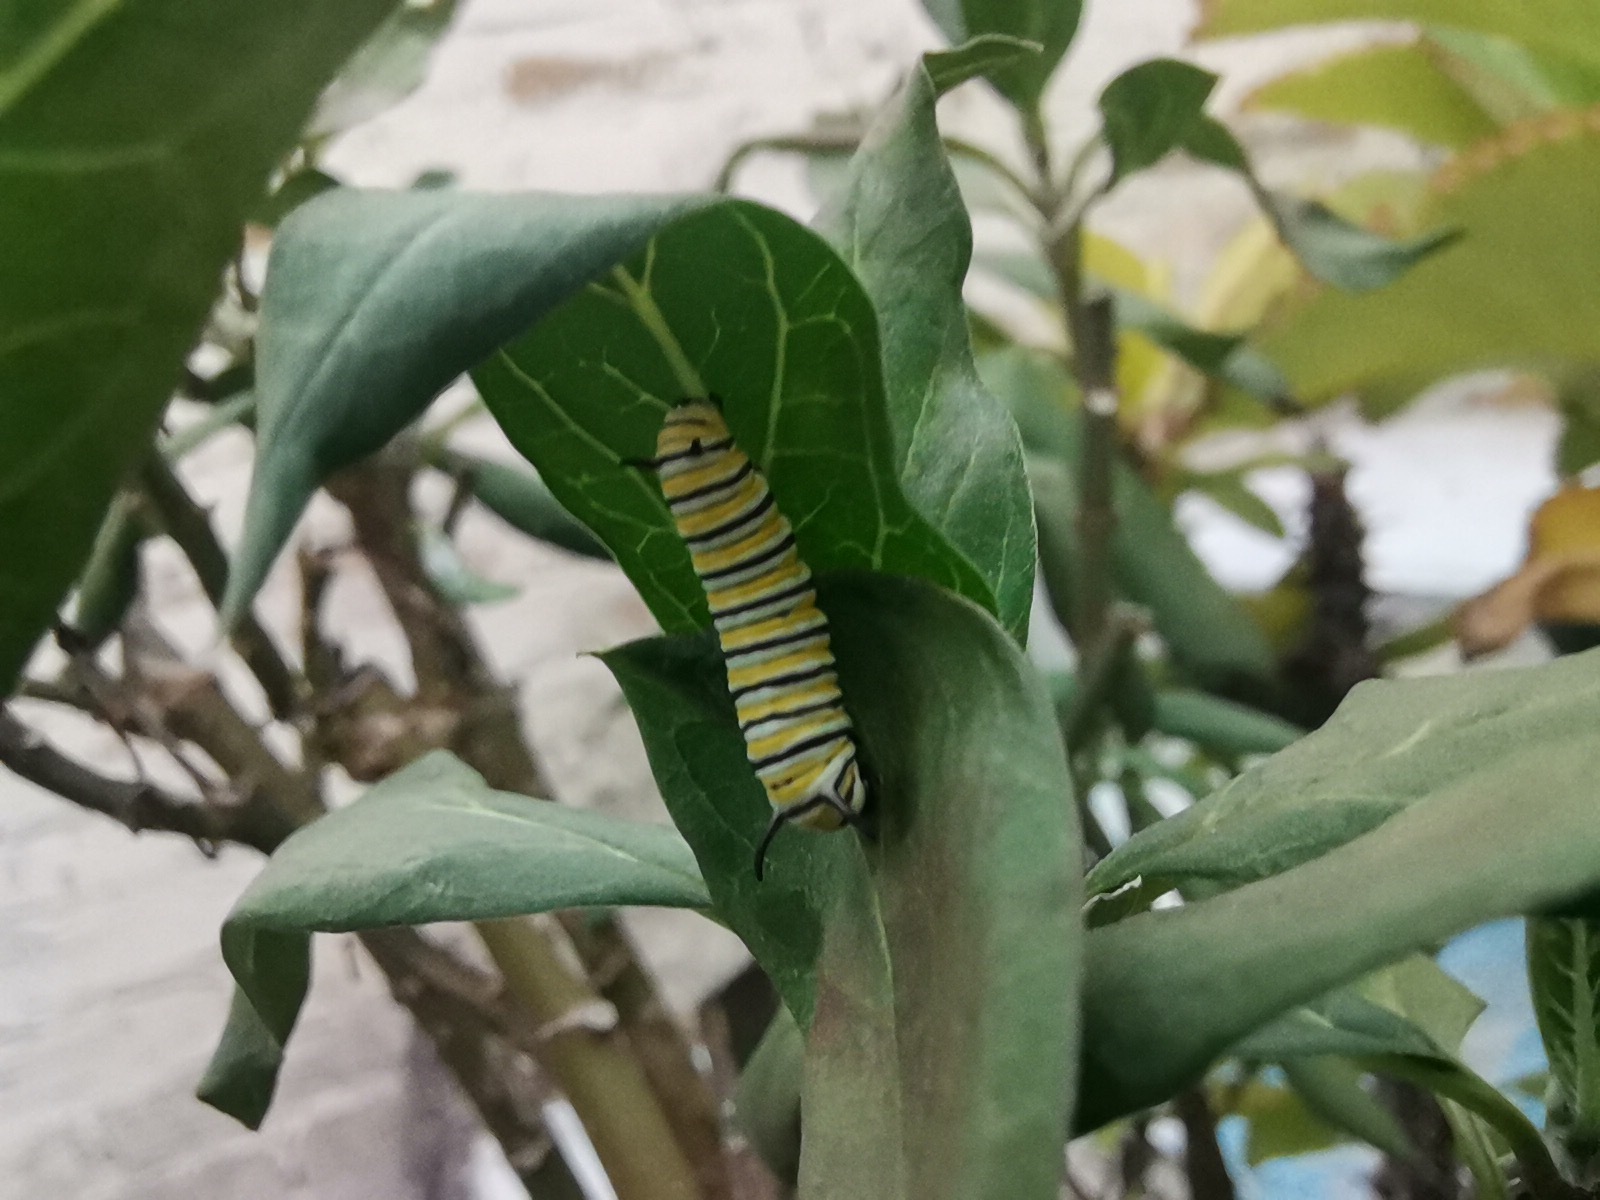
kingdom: Animalia
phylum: Arthropoda
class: Insecta
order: Lepidoptera
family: Nymphalidae
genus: Danaus
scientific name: Danaus plexippus
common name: Monarch
